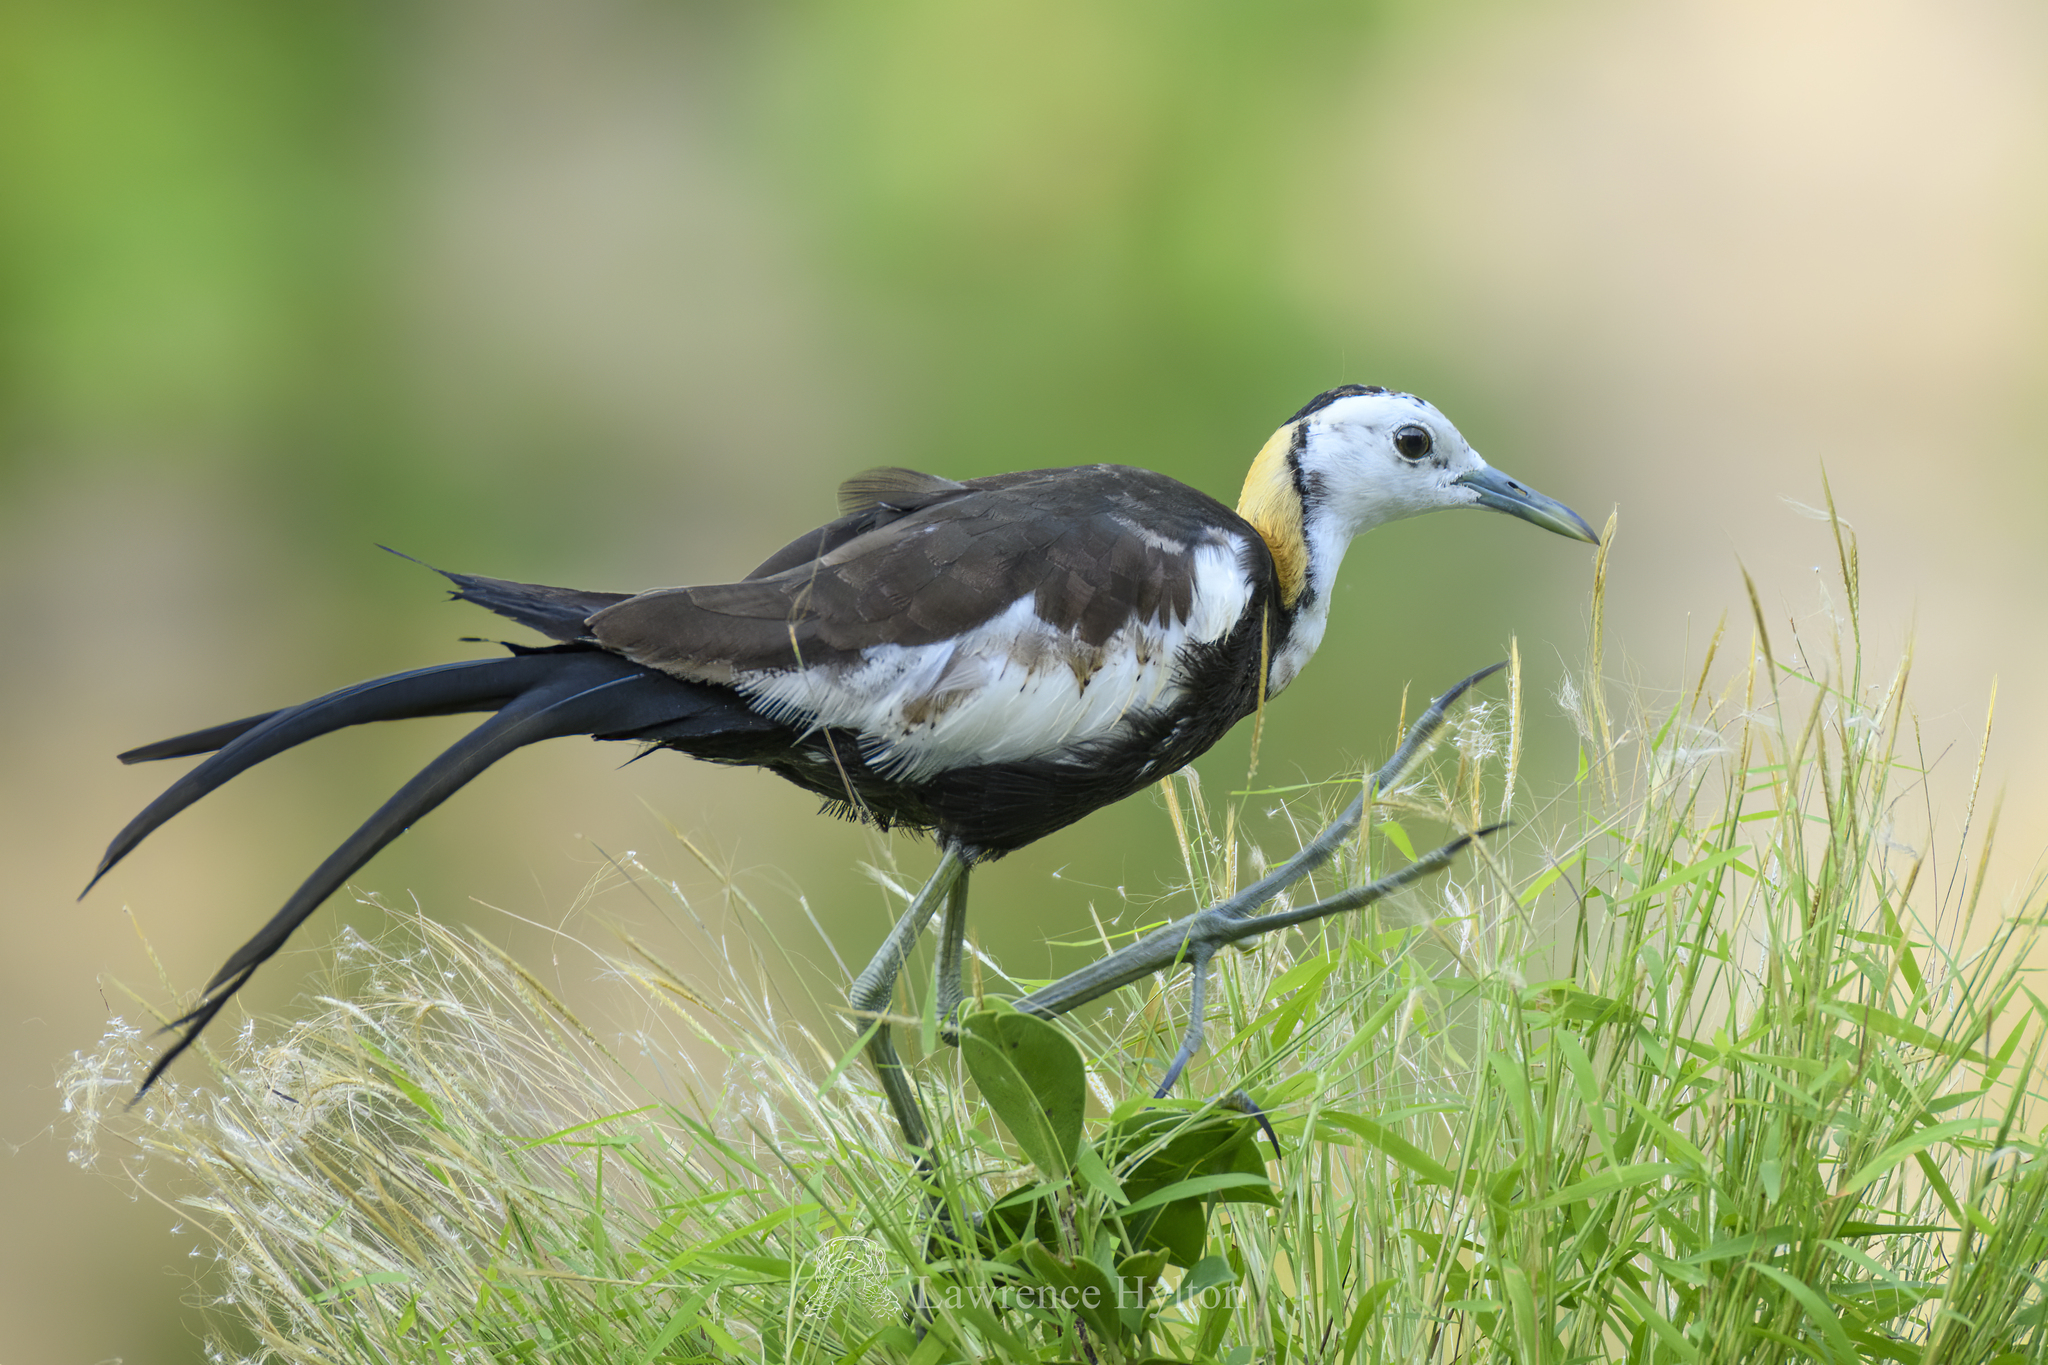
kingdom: Animalia
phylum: Chordata
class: Aves
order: Charadriiformes
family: Jacanidae
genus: Hydrophasianus
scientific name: Hydrophasianus chirurgus
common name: Pheasant-tailed jacana
